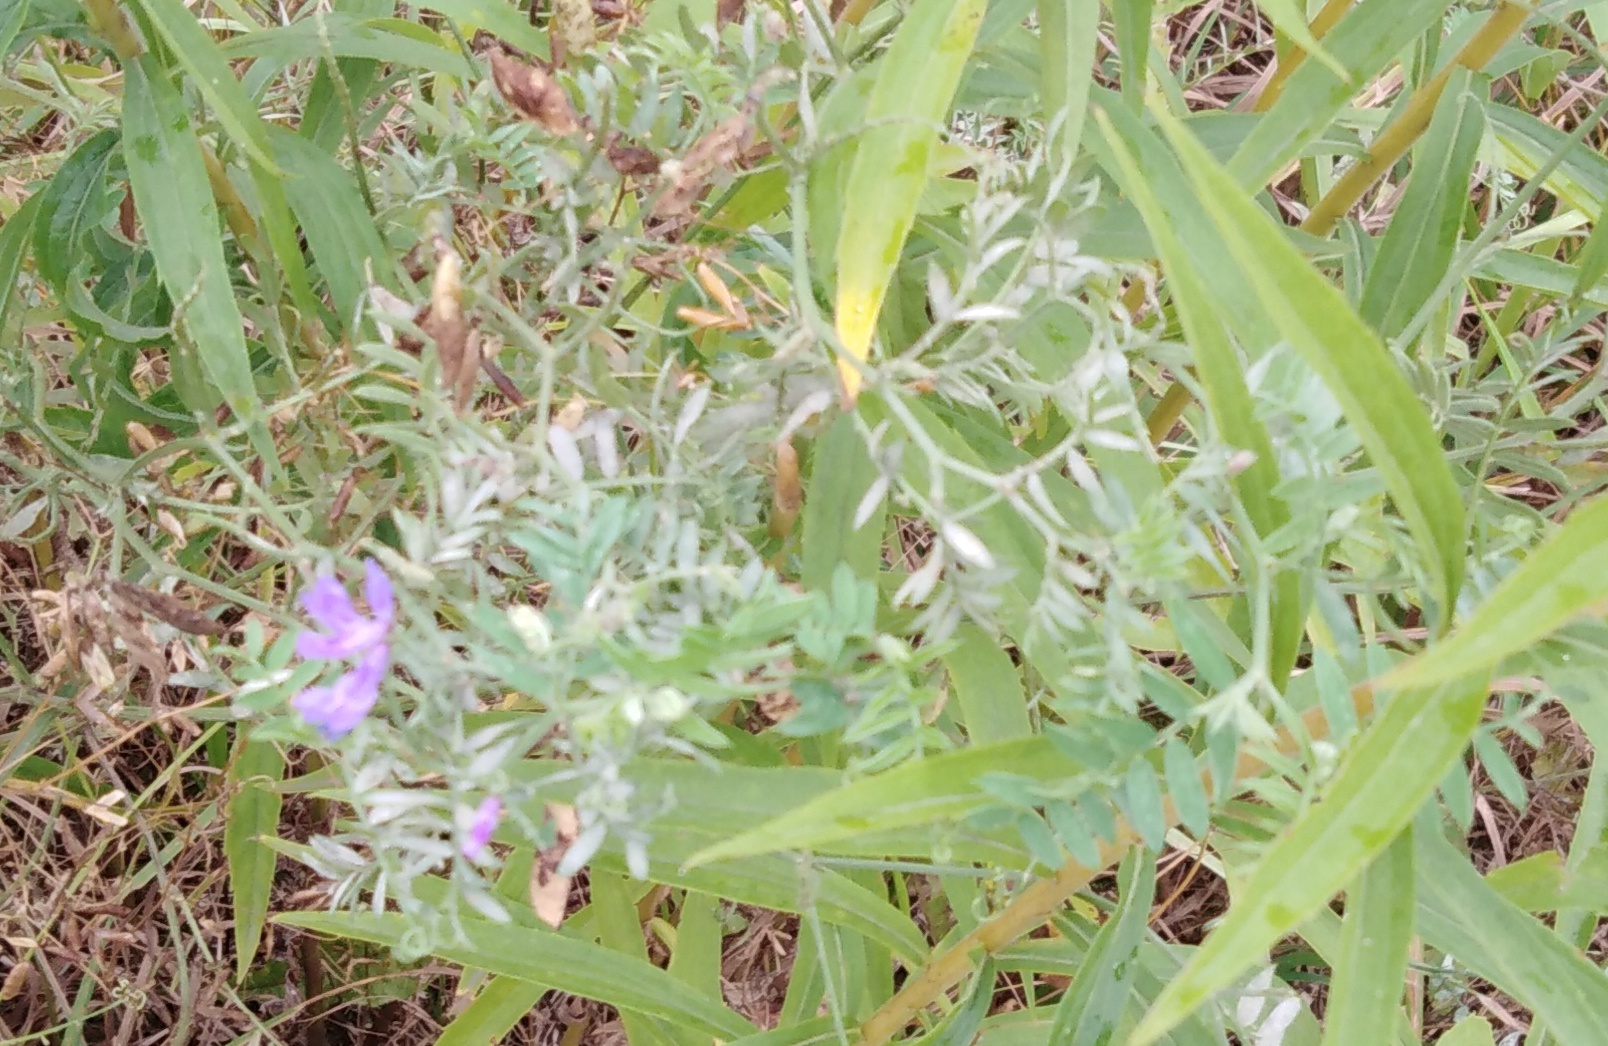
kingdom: Plantae
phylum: Tracheophyta
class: Magnoliopsida
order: Fabales
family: Fabaceae
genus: Vicia
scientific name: Vicia cracca
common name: Bird vetch
